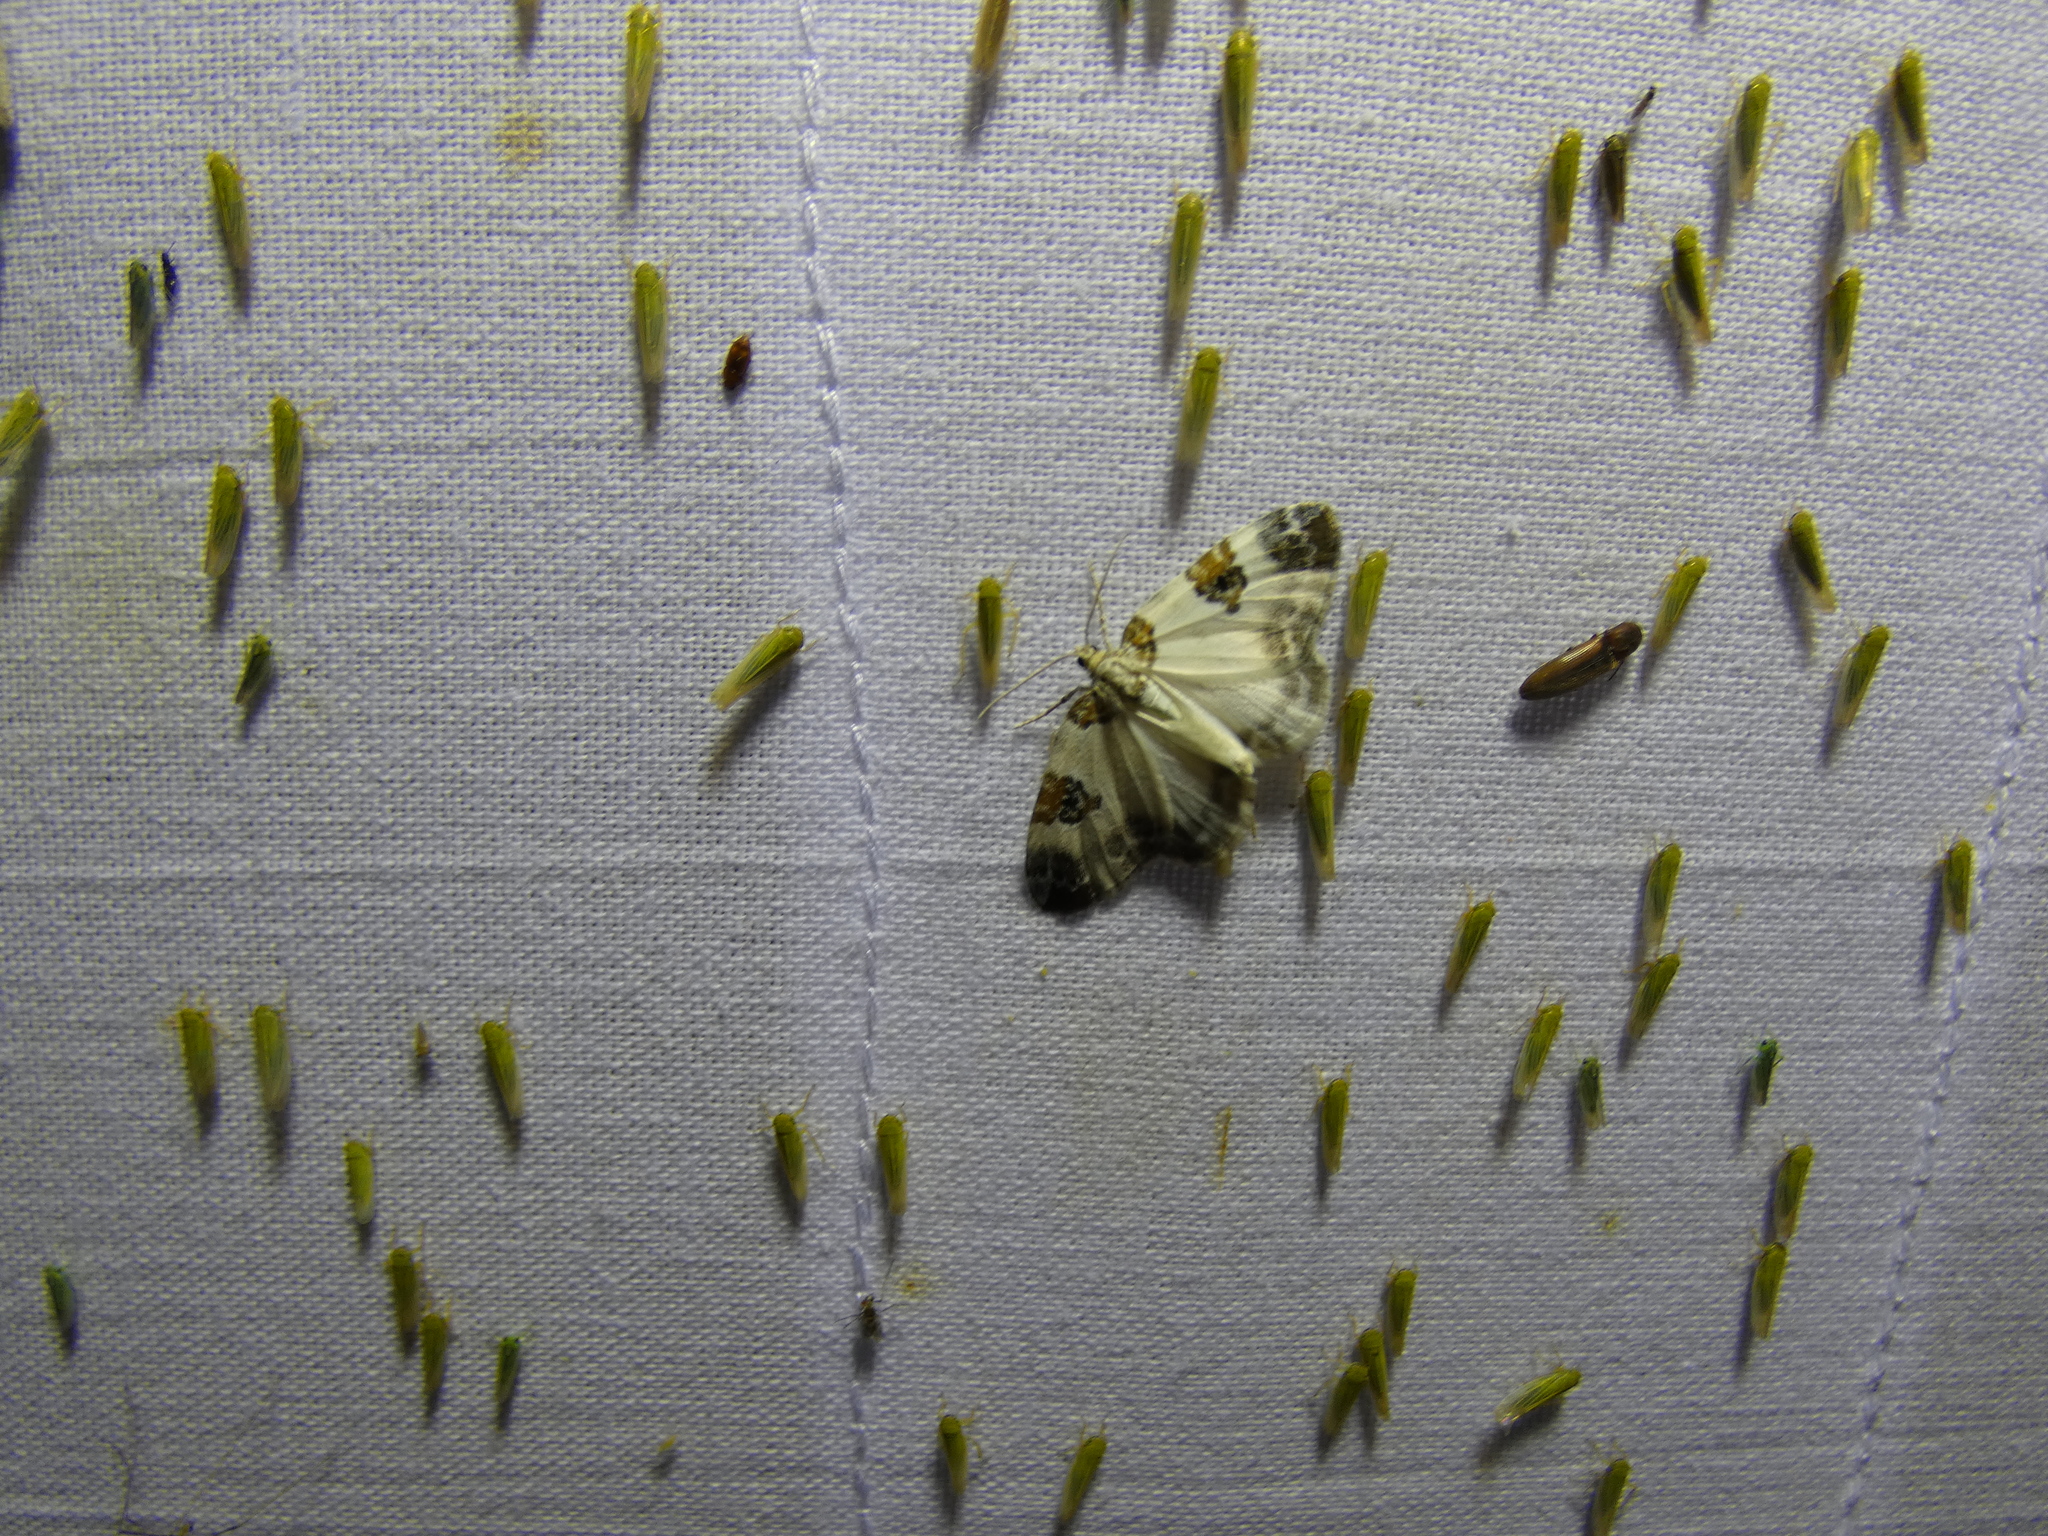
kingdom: Animalia
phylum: Arthropoda
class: Insecta
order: Lepidoptera
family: Geometridae
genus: Plemyria
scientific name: Plemyria rubiginata
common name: Blue-bordered carpet
